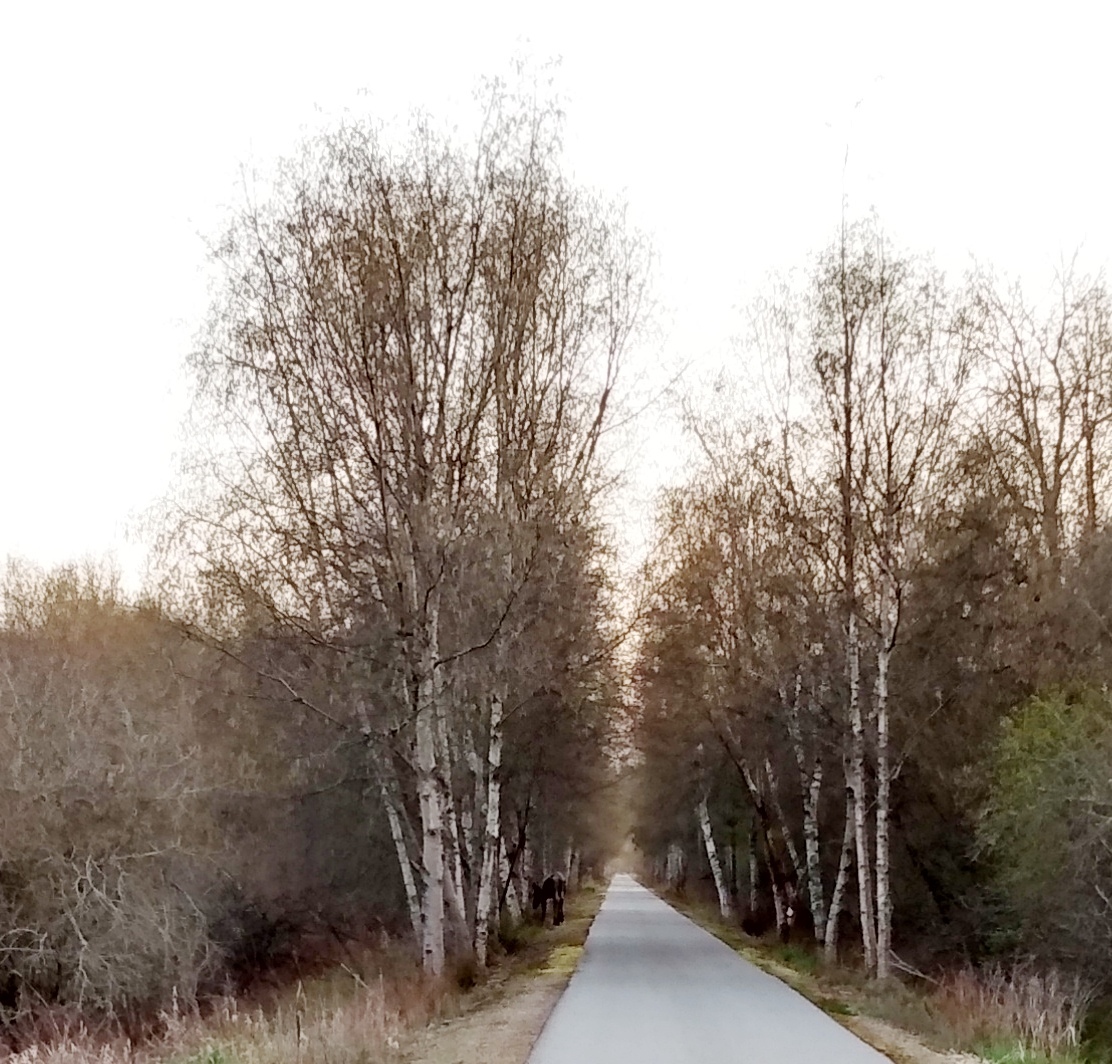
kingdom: Animalia
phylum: Chordata
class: Mammalia
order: Artiodactyla
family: Cervidae
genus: Alces
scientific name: Alces alces
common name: Moose
